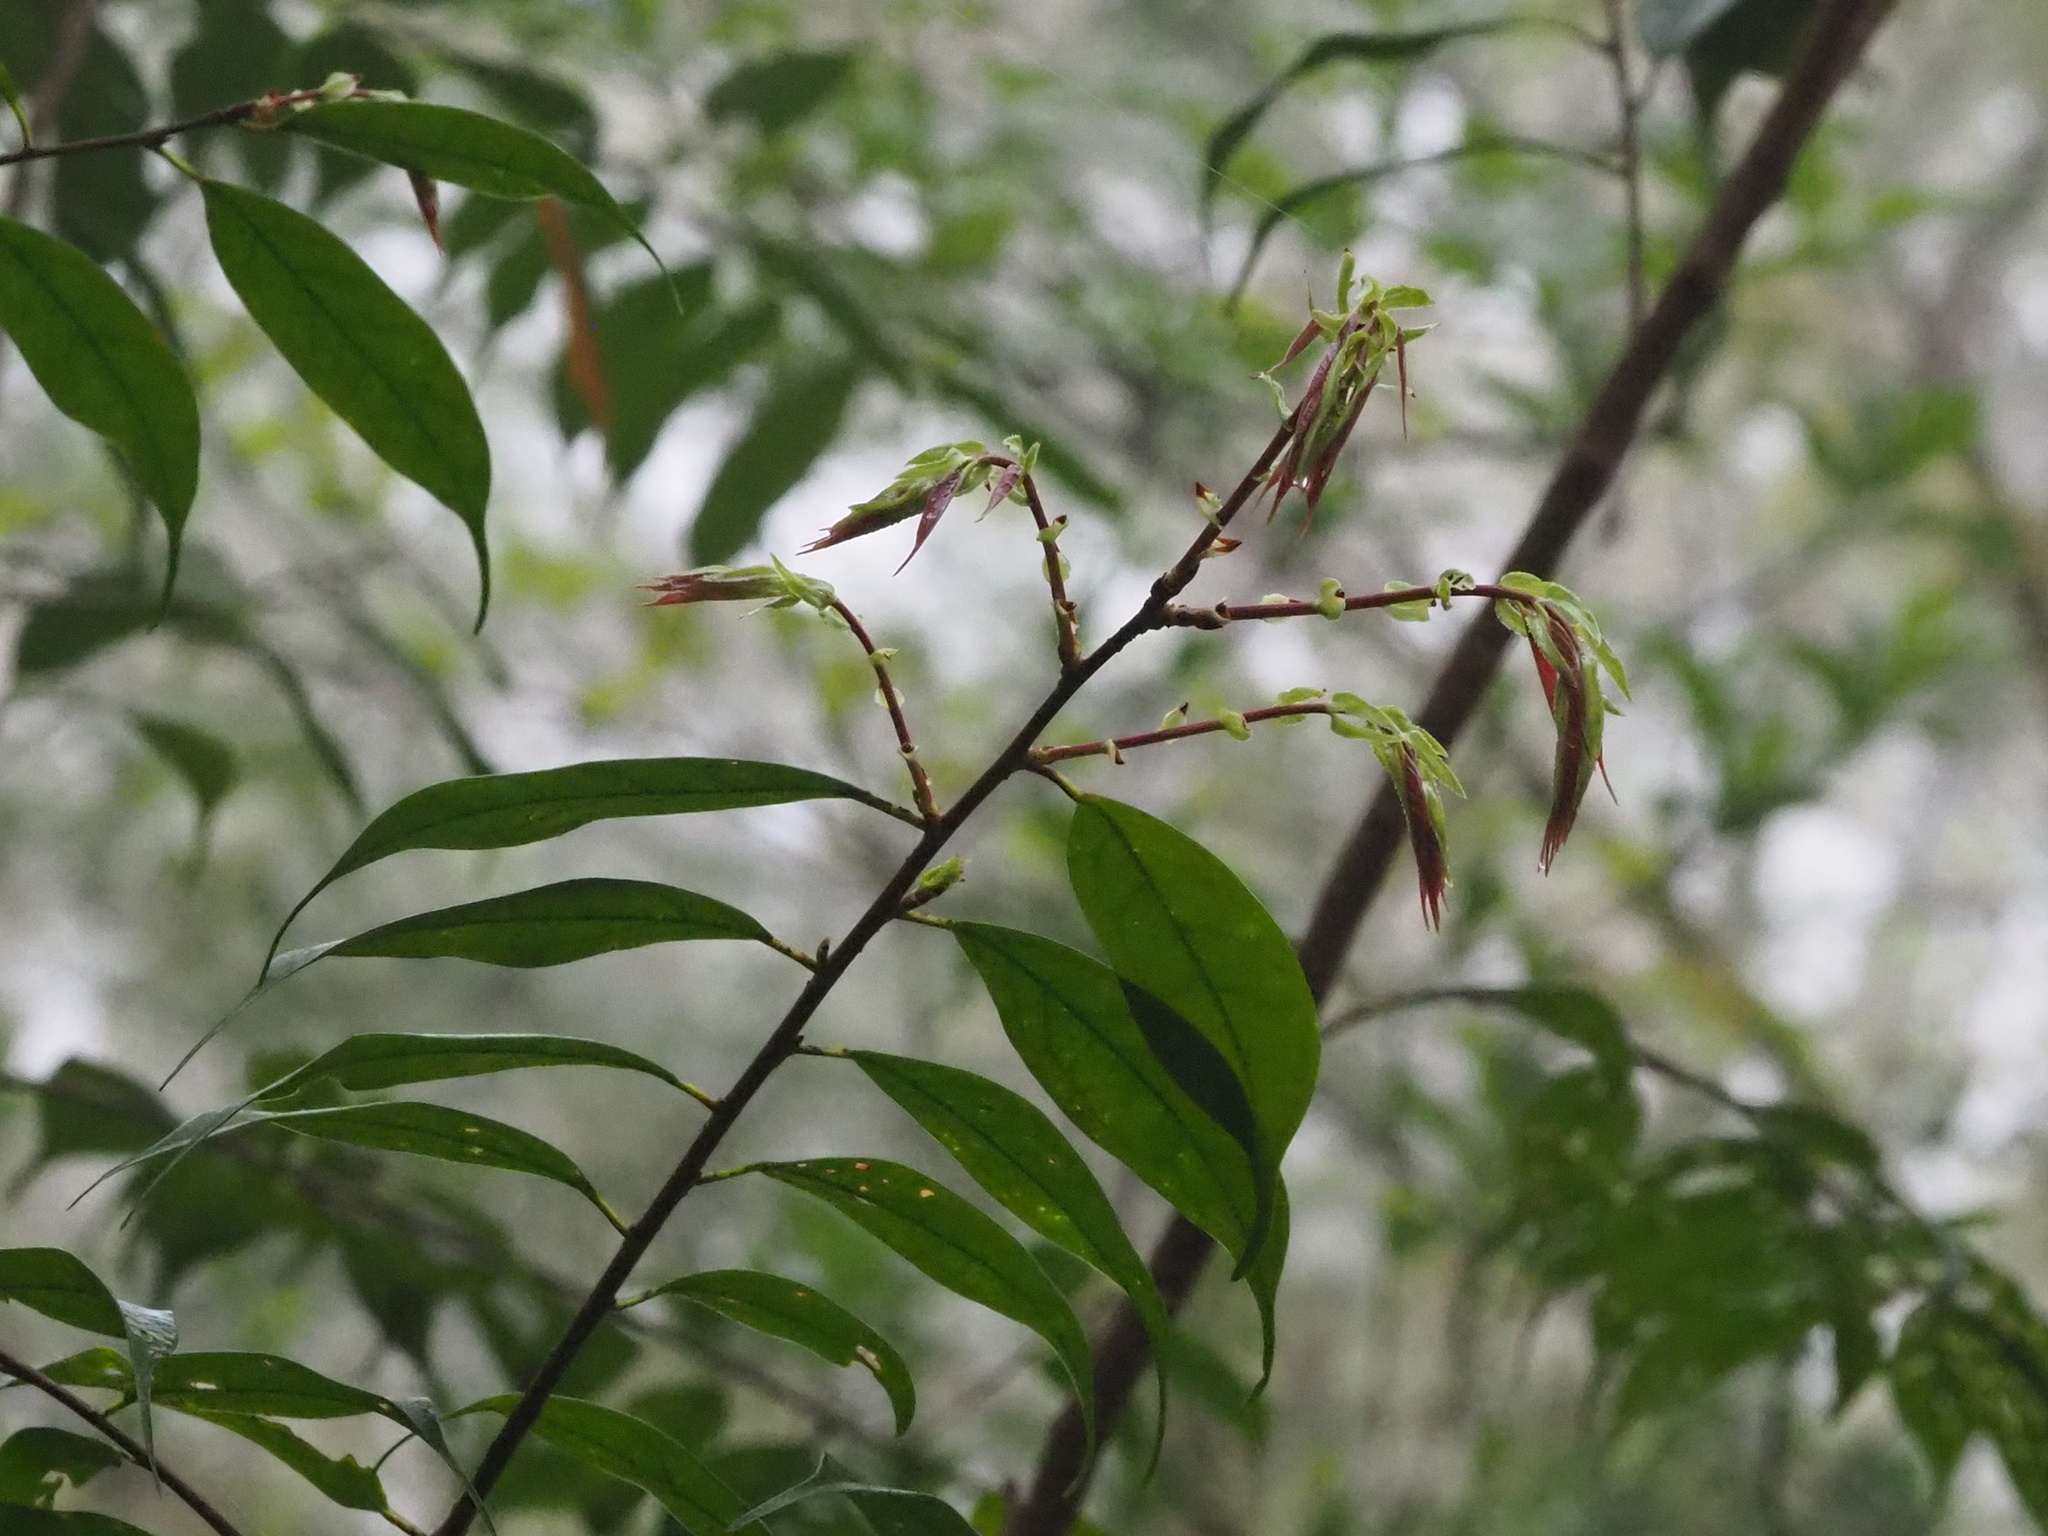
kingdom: Plantae
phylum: Tracheophyta
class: Magnoliopsida
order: Rosales
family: Rosaceae
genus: Prunus
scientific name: Prunus phaeosticta
